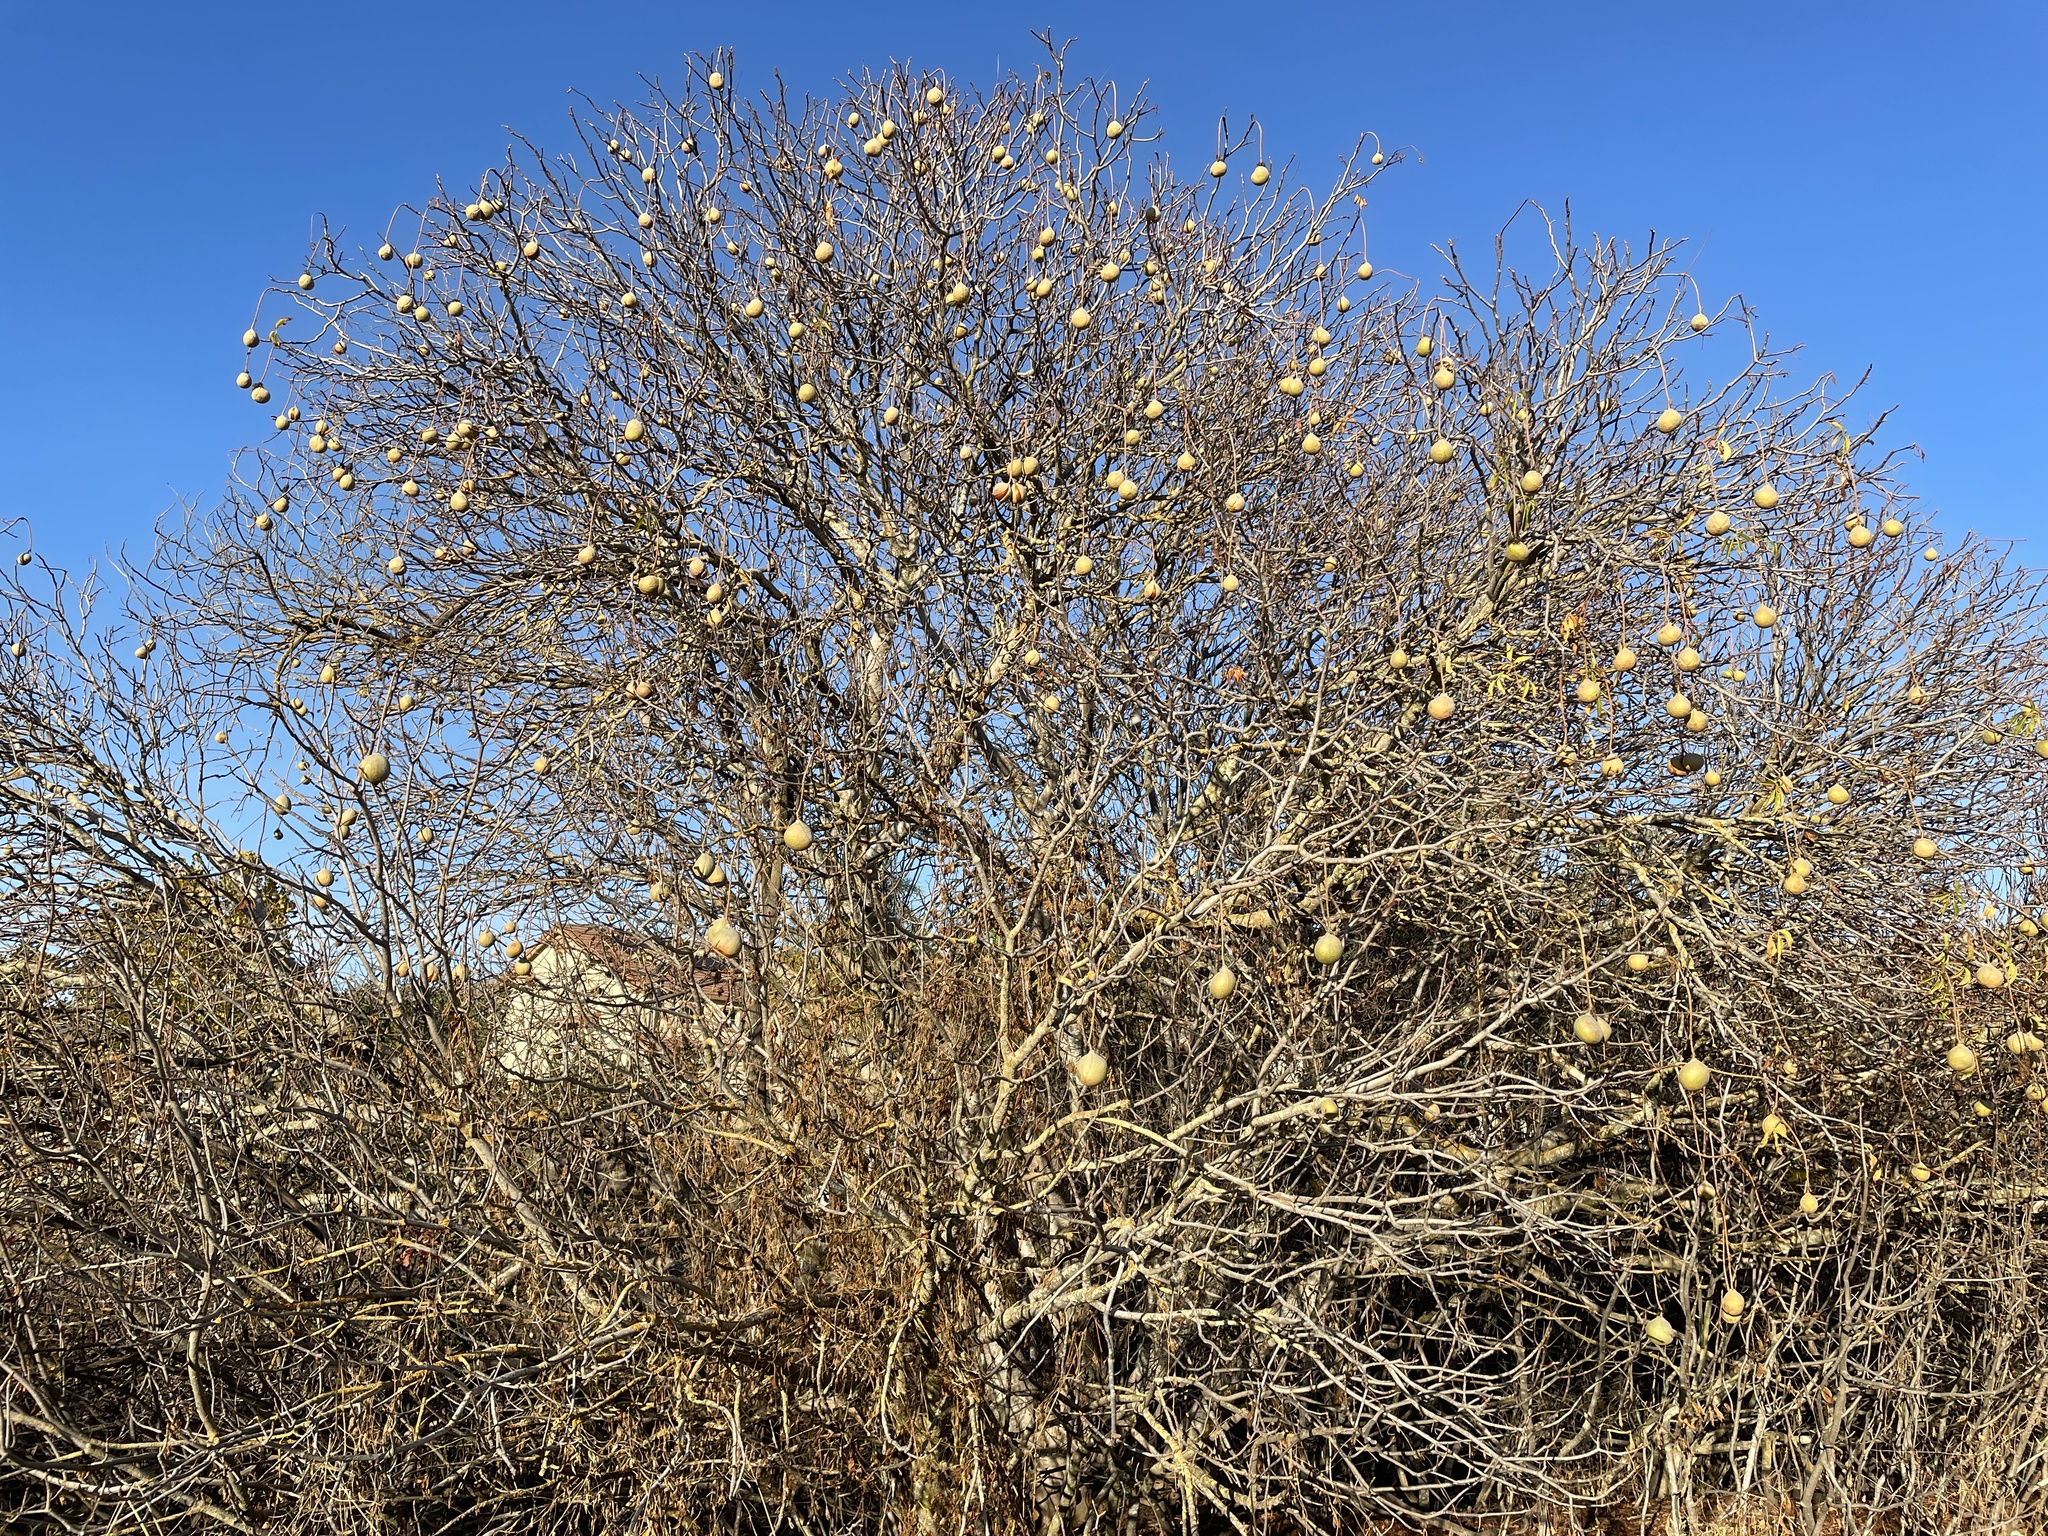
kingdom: Plantae
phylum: Tracheophyta
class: Magnoliopsida
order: Sapindales
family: Sapindaceae
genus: Aesculus
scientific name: Aesculus californica
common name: California buckeye
